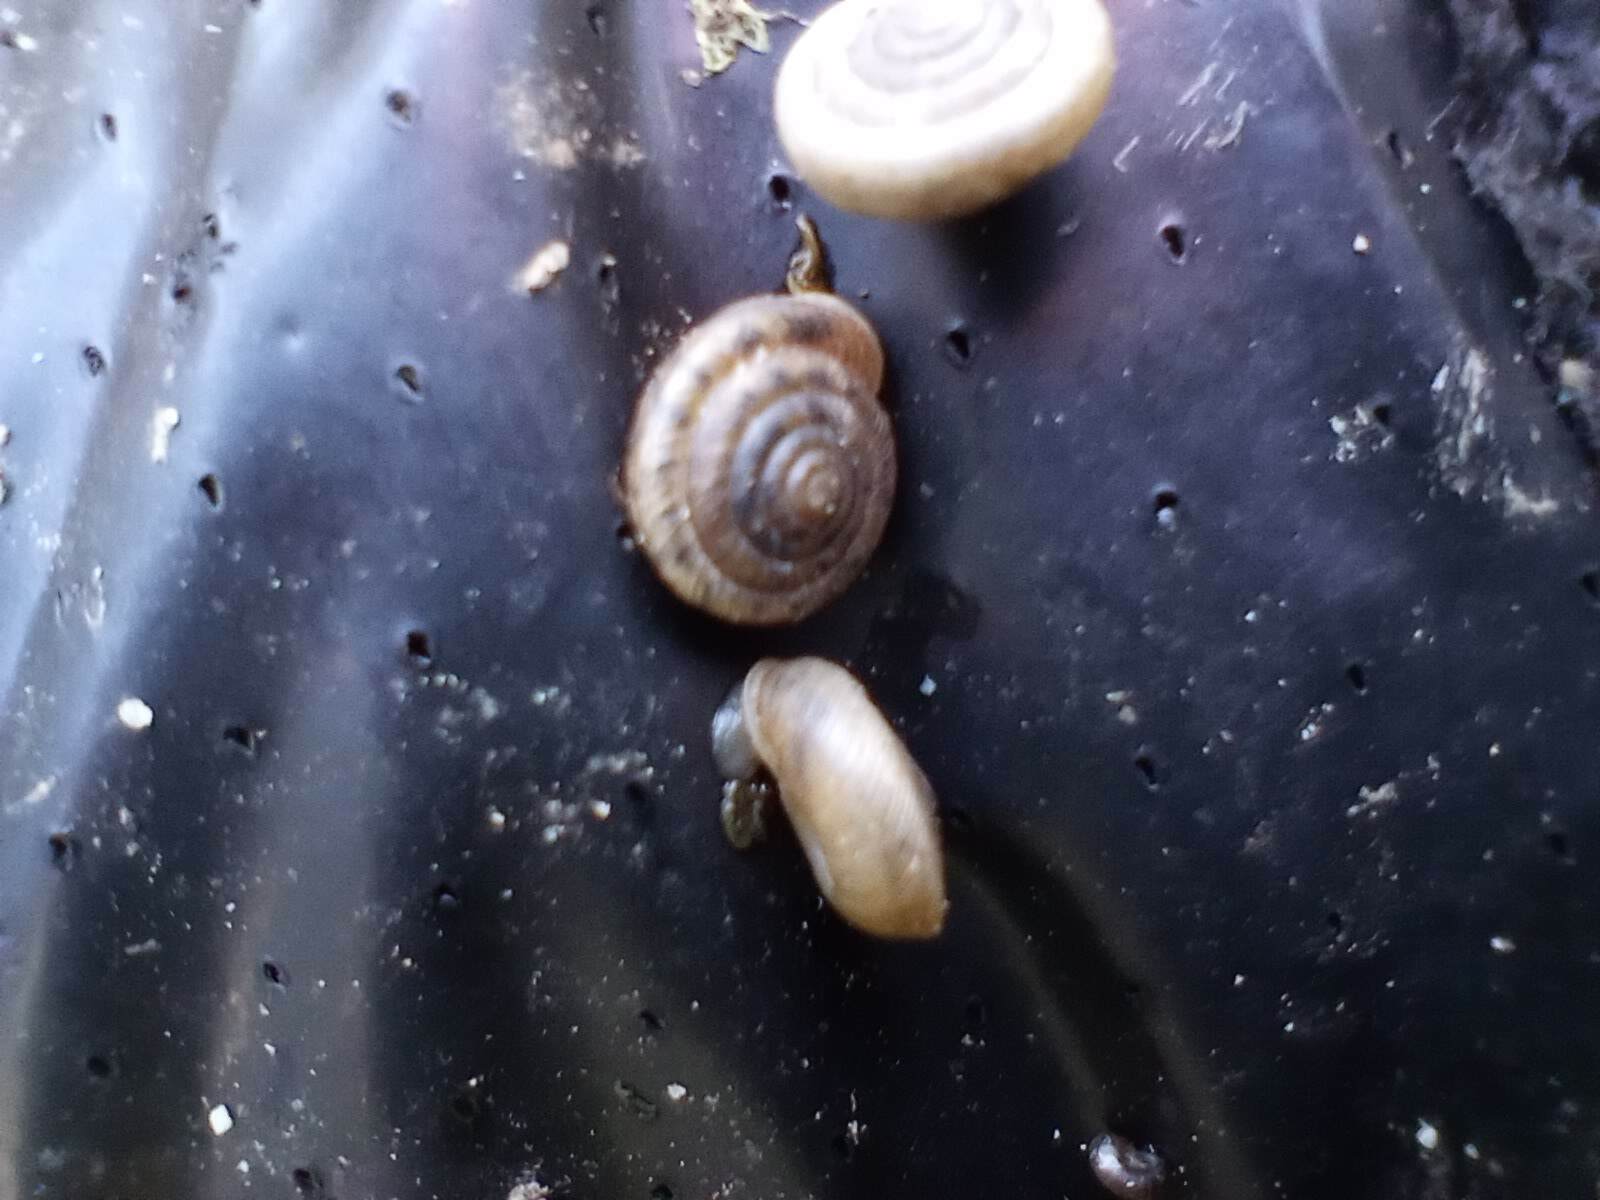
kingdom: Animalia
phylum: Mollusca
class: Gastropoda
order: Stylommatophora
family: Polygyridae
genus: Polygyra
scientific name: Polygyra cereolus
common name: Southern flatcone snail
